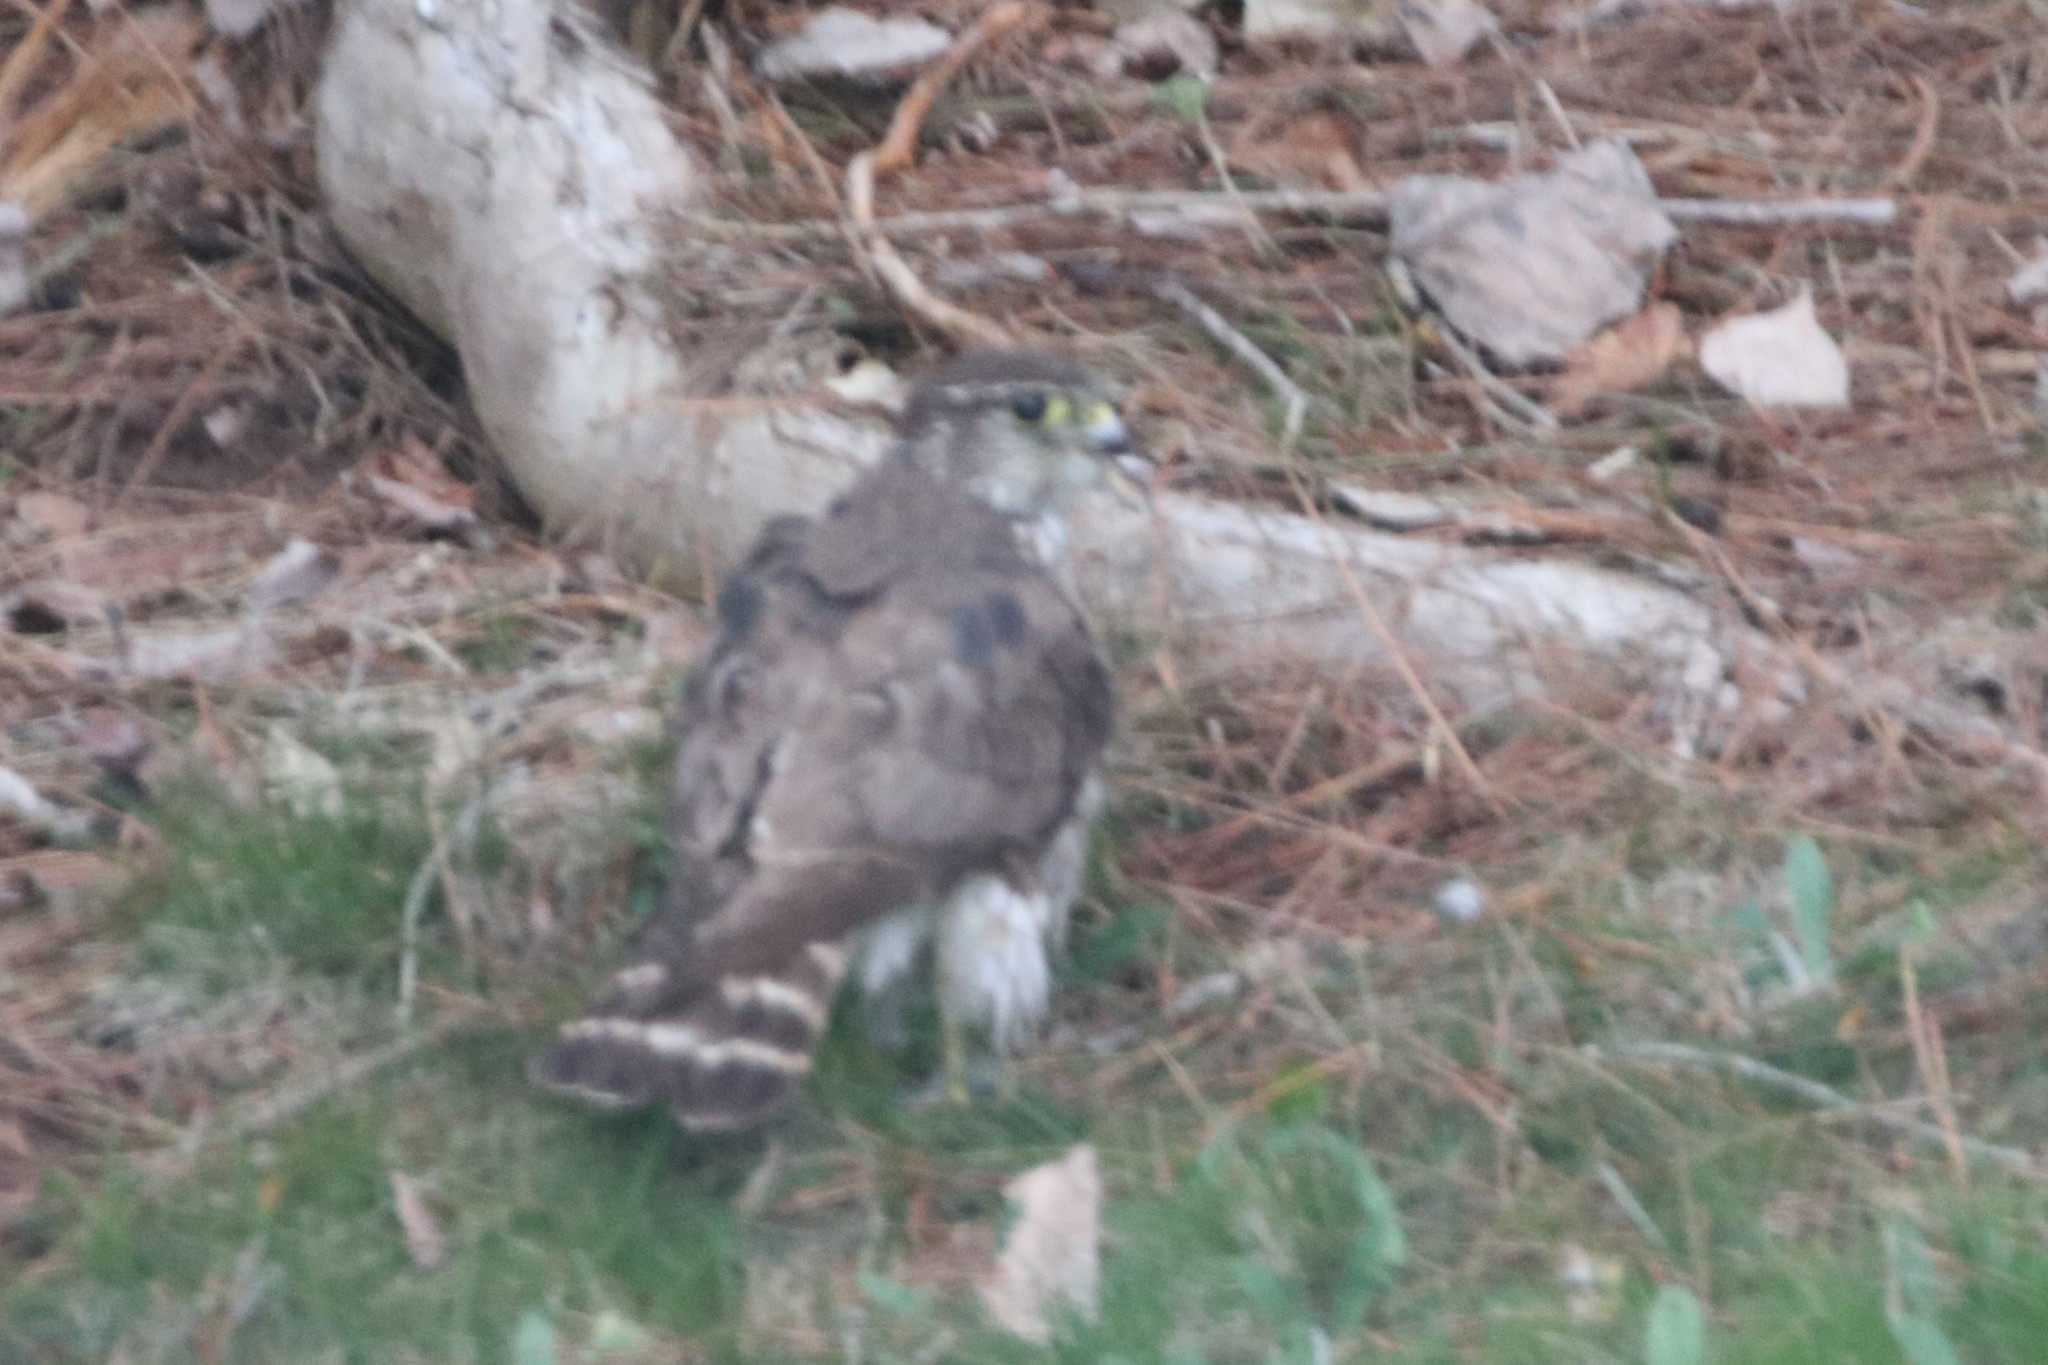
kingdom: Animalia
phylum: Chordata
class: Aves
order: Falconiformes
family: Falconidae
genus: Falco
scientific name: Falco columbarius
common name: Merlin
